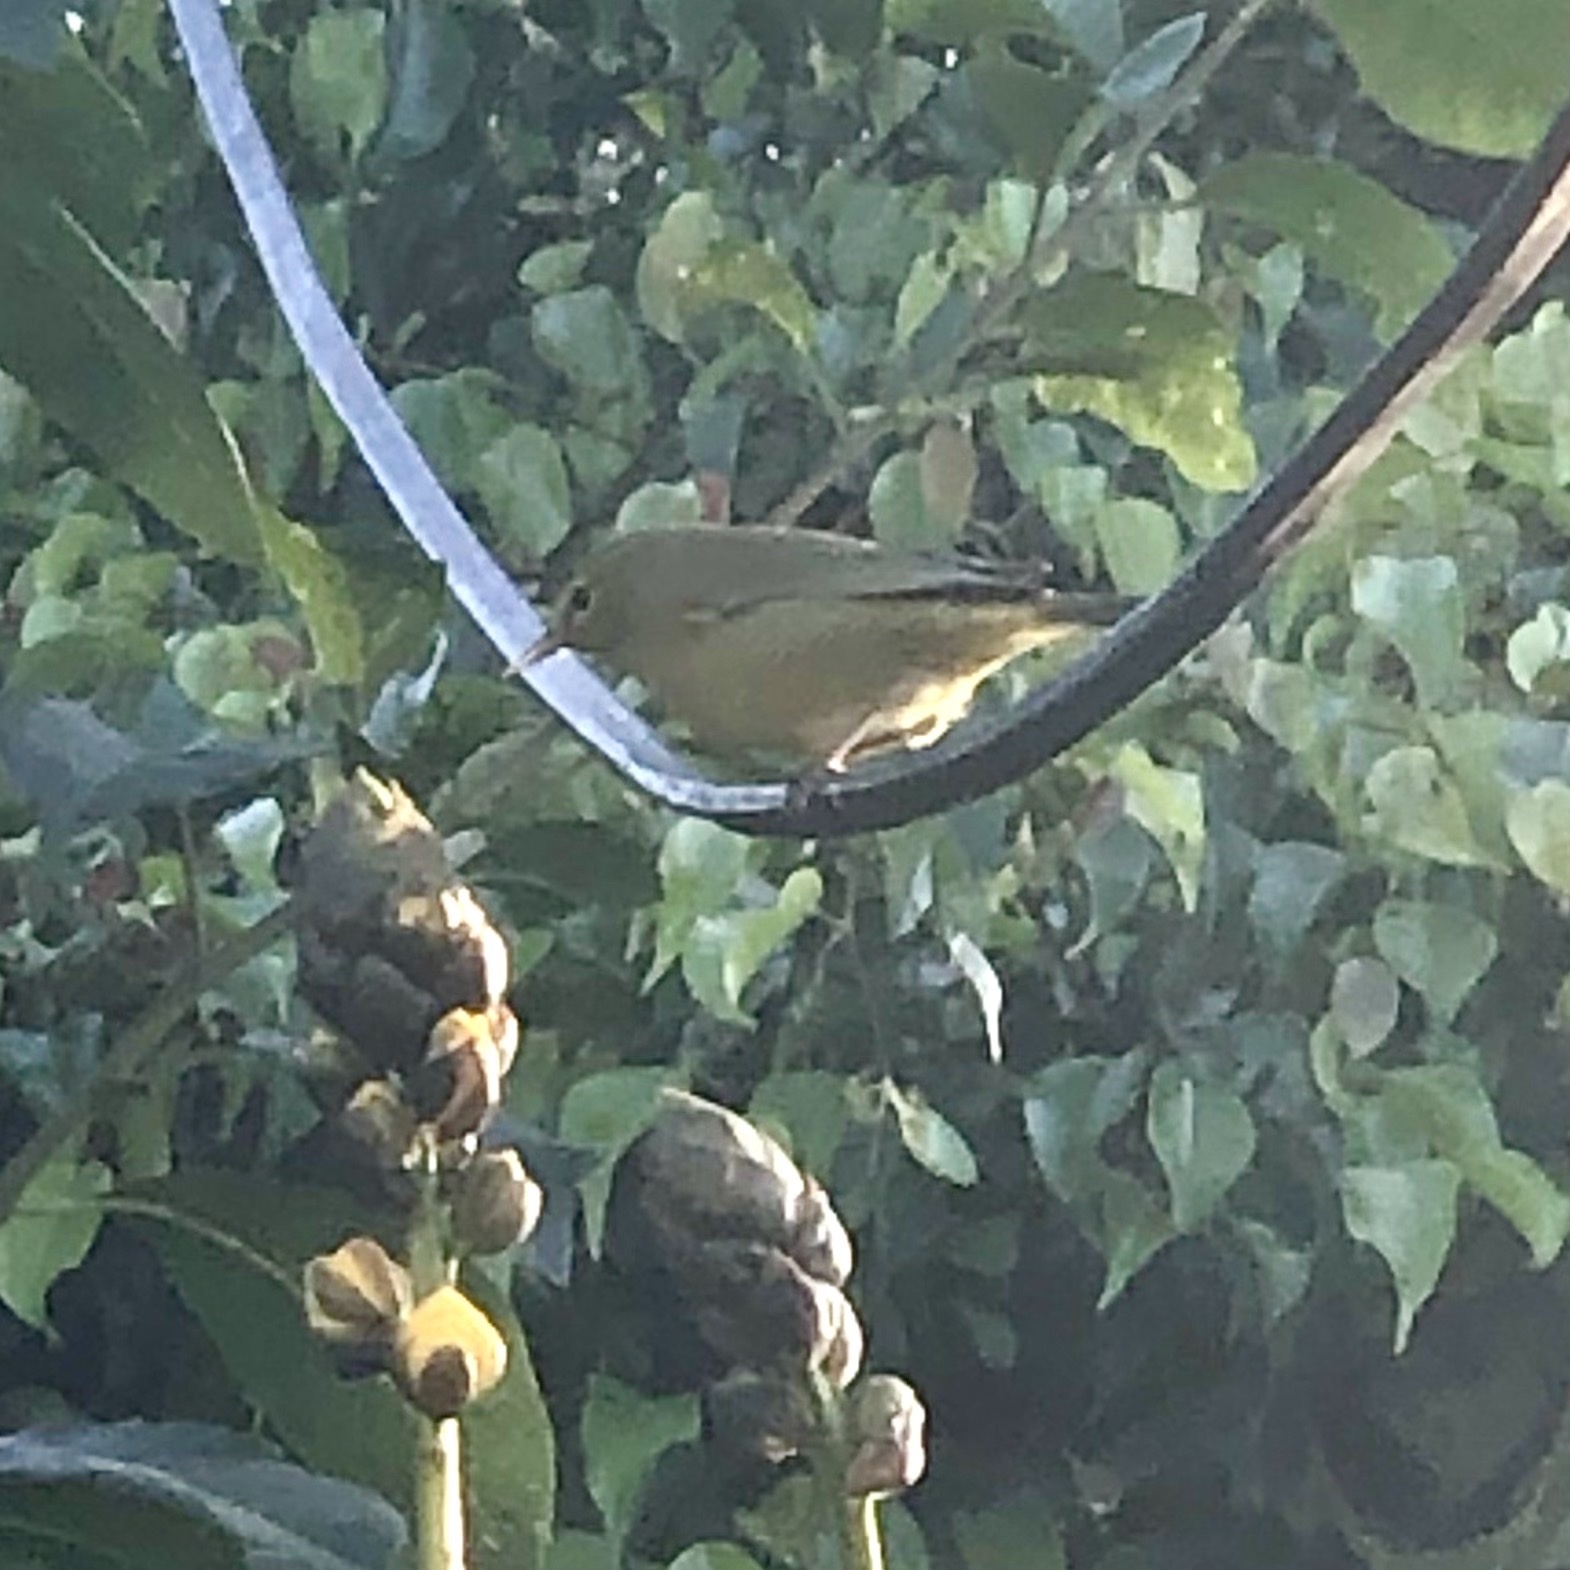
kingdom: Animalia
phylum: Chordata
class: Aves
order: Passeriformes
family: Parulidae
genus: Leiothlypis
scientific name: Leiothlypis celata
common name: Orange-crowned warbler
